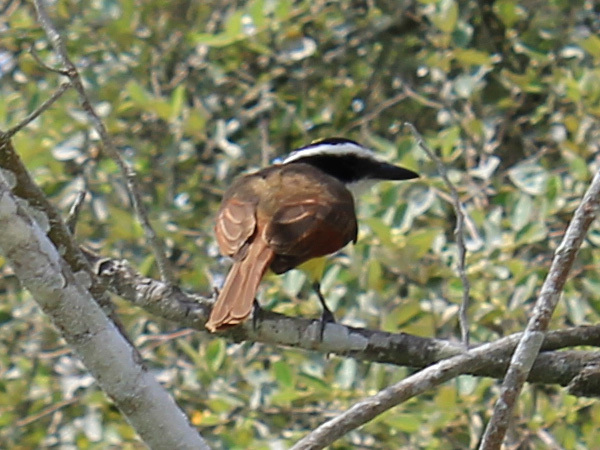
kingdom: Animalia
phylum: Chordata
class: Aves
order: Passeriformes
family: Tyrannidae
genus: Pitangus
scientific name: Pitangus sulphuratus
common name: Great kiskadee
